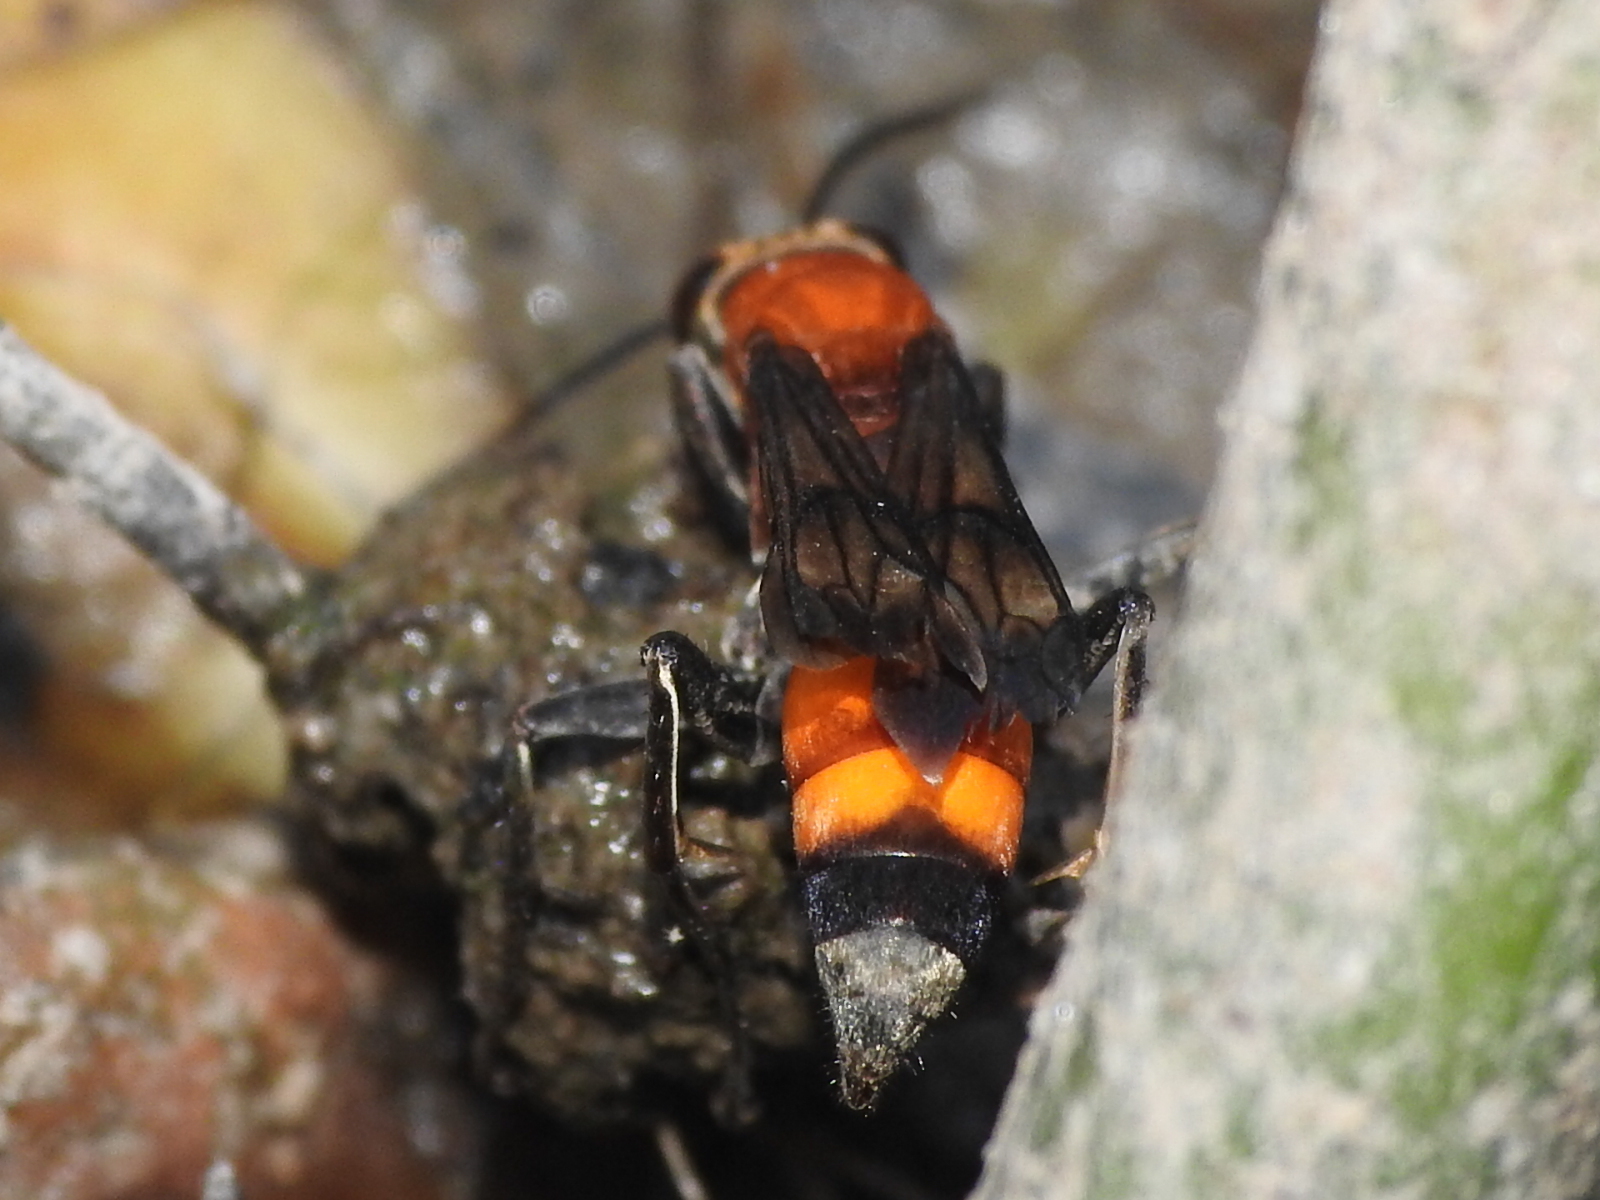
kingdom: Animalia
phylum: Arthropoda
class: Insecta
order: Hymenoptera
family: Pompilidae
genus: Psorthaspis
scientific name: Psorthaspis mariae
